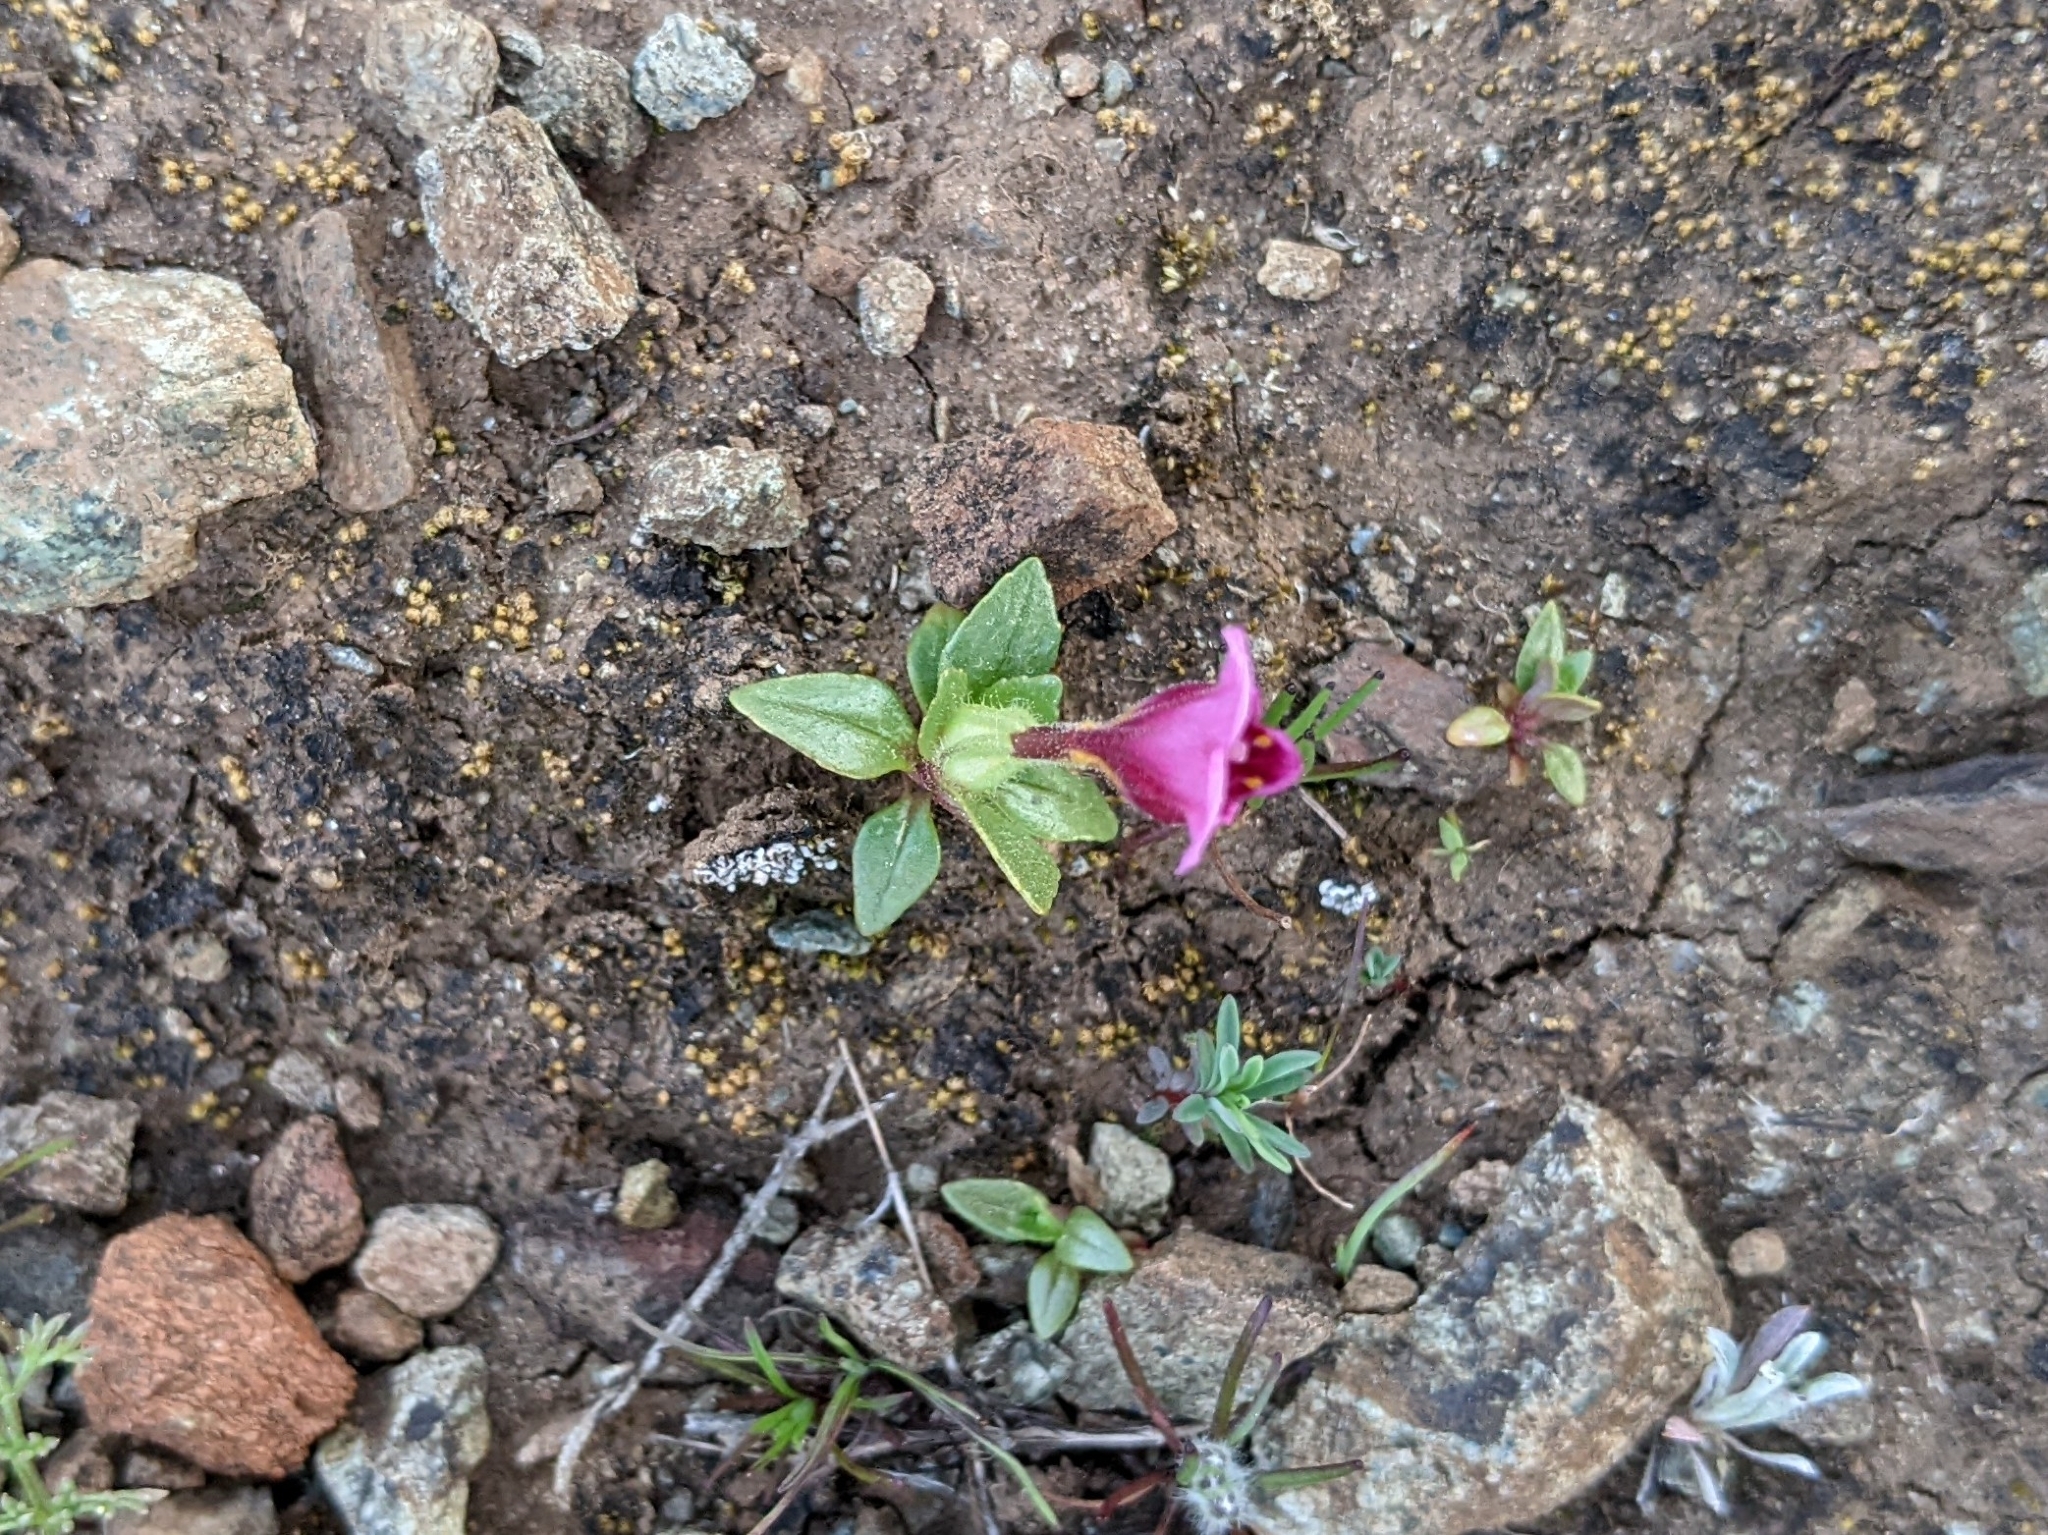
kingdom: Plantae
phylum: Tracheophyta
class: Magnoliopsida
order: Lamiales
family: Phrymaceae
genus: Diplacus
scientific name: Diplacus douglasii
